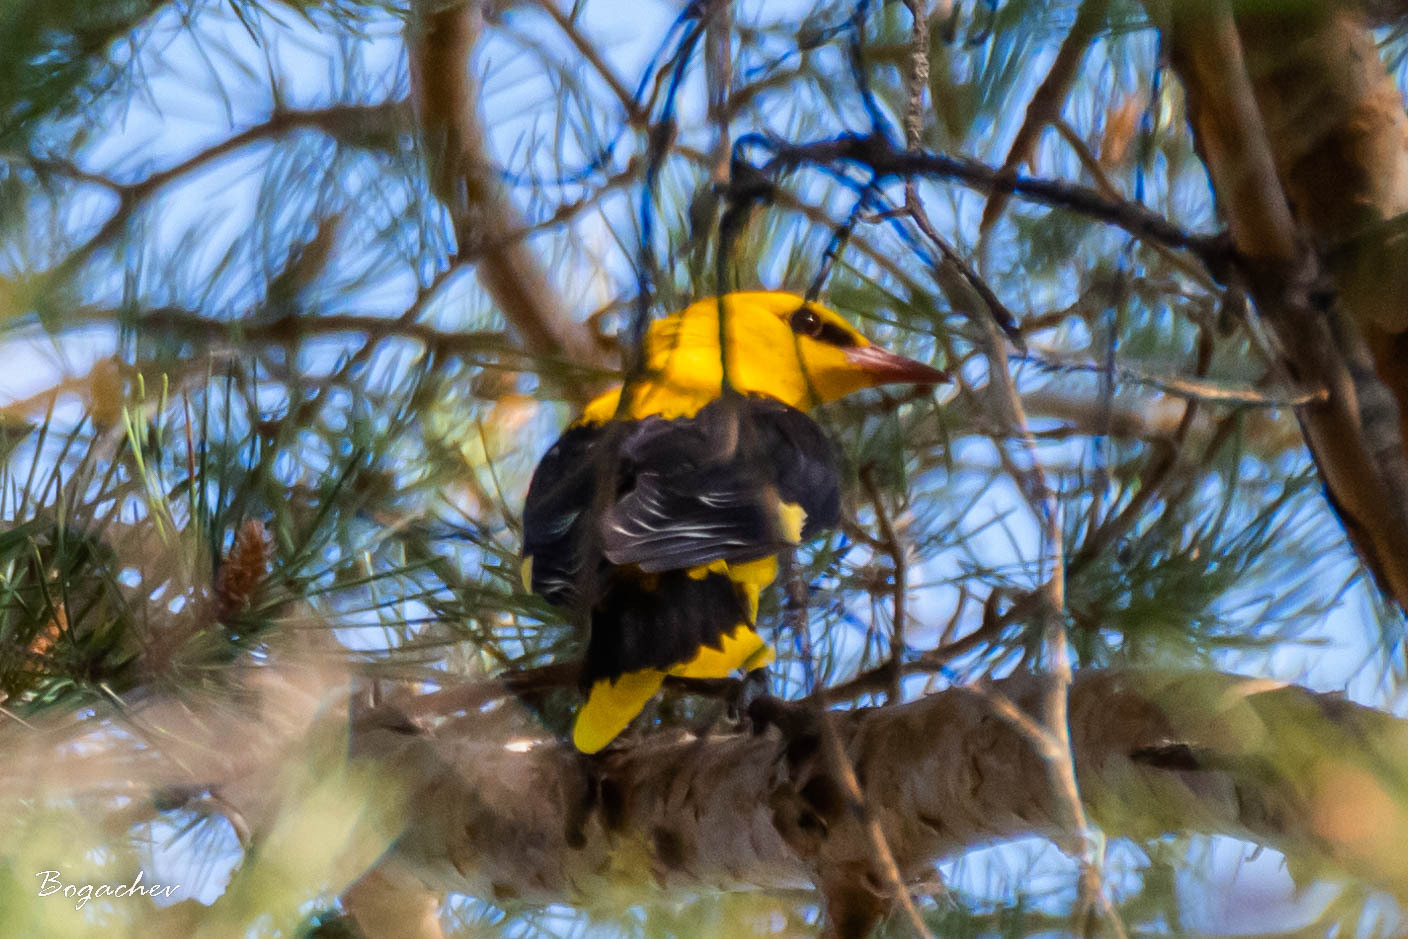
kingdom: Animalia
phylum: Chordata
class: Aves
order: Passeriformes
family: Oriolidae
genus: Oriolus
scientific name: Oriolus oriolus
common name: Eurasian golden oriole
